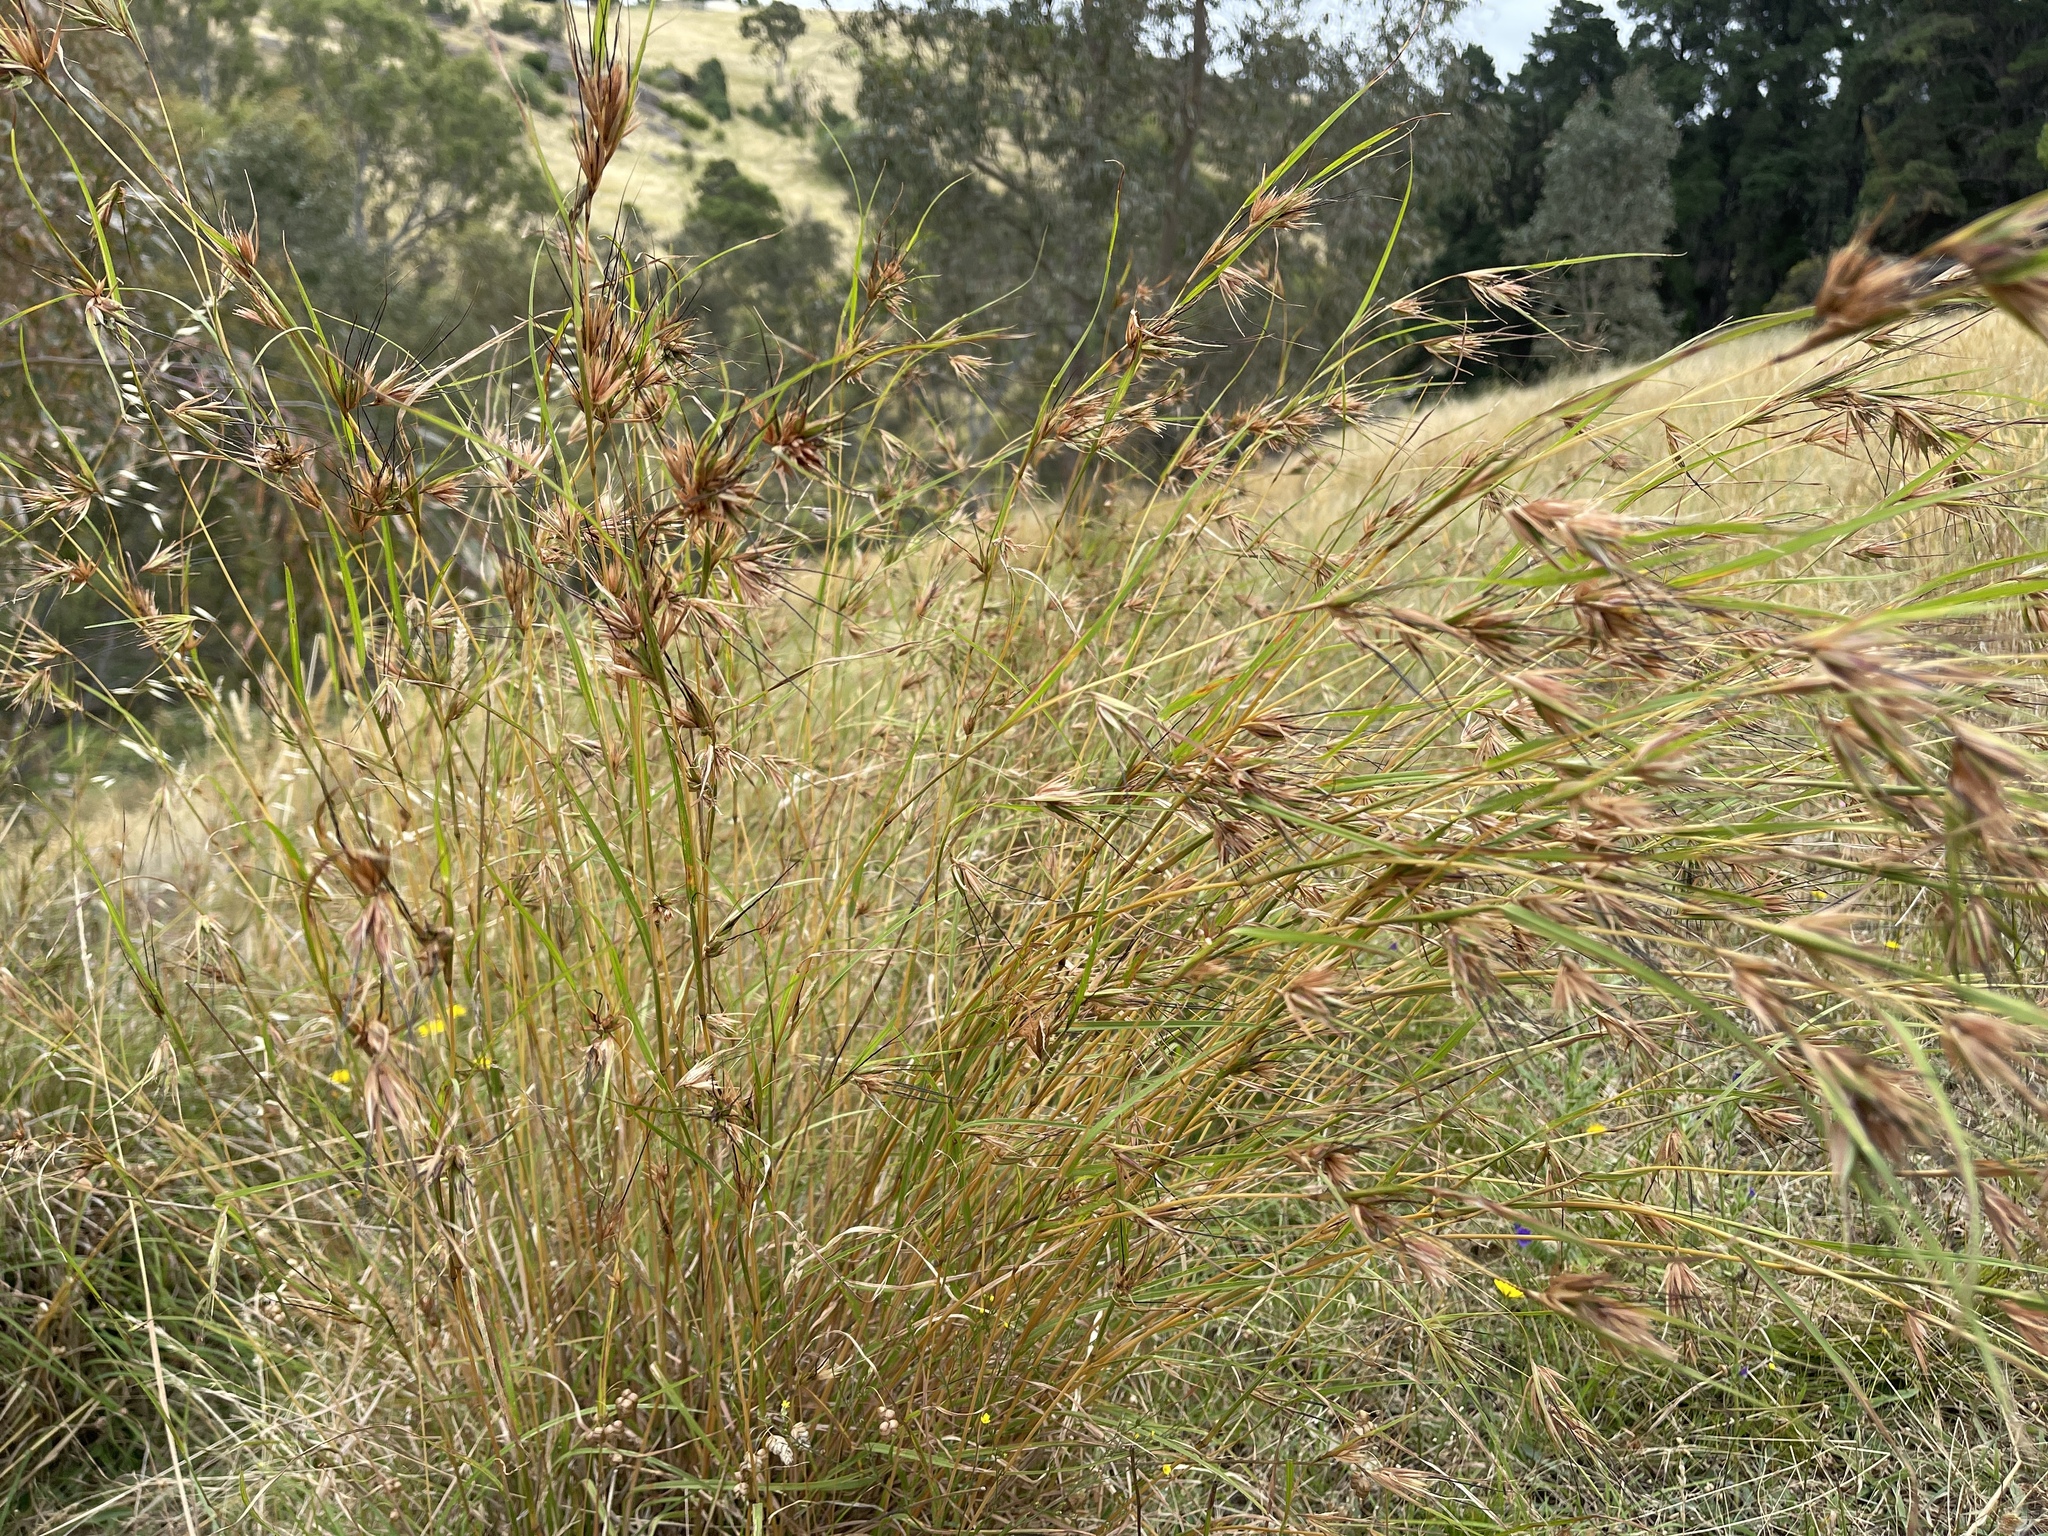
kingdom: Plantae
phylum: Tracheophyta
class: Liliopsida
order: Poales
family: Poaceae
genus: Themeda
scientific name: Themeda triandra
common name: Kangaroo grass
